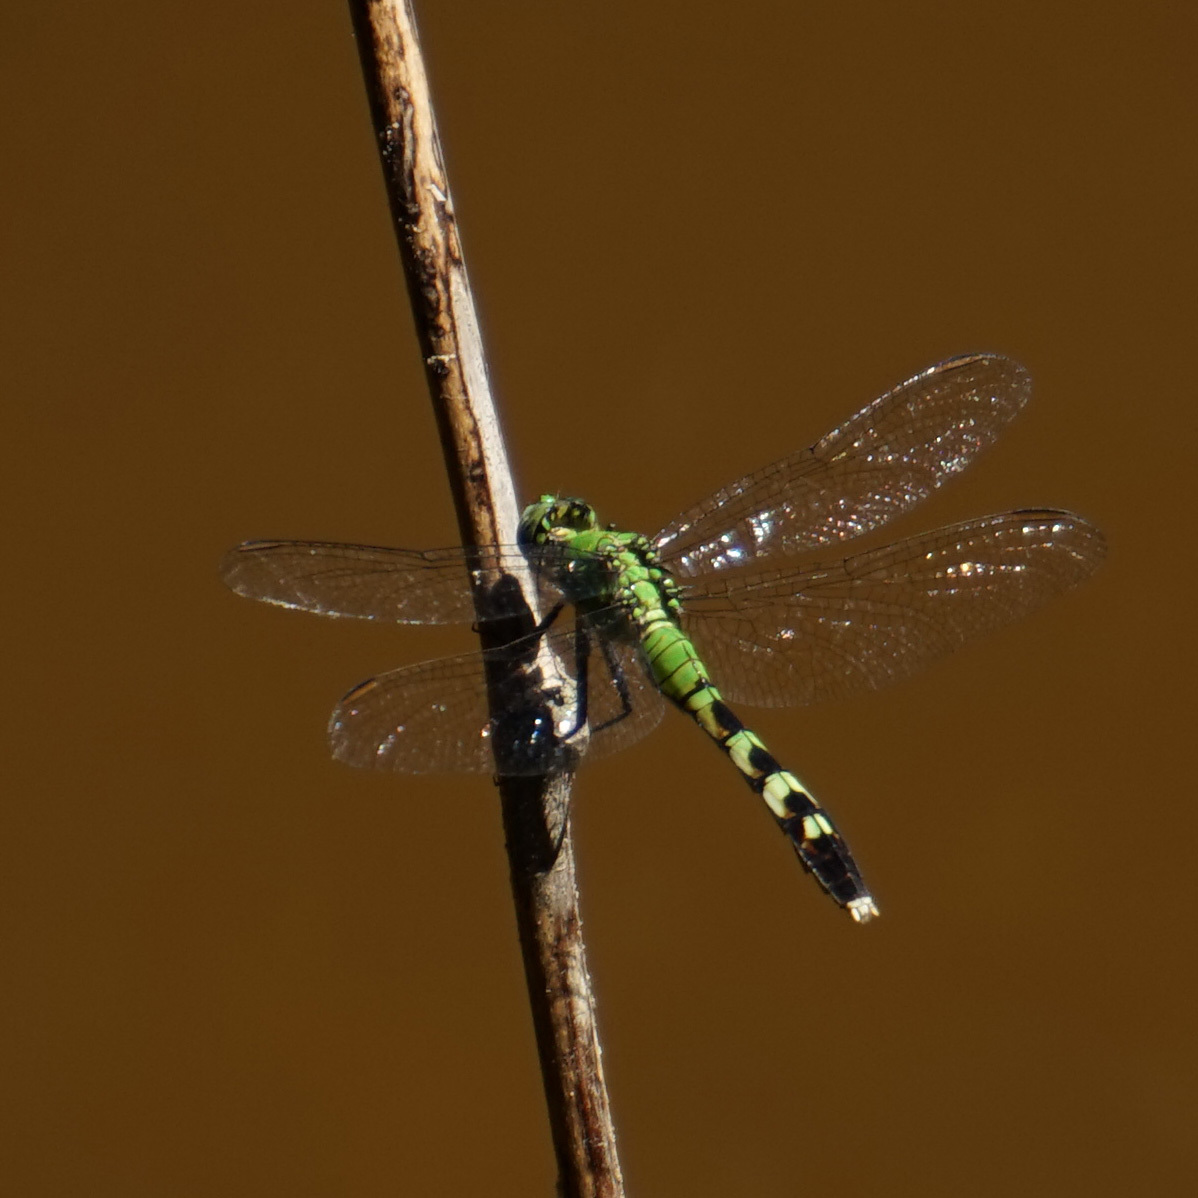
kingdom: Animalia
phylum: Arthropoda
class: Insecta
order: Odonata
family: Libellulidae
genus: Erythemis
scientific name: Erythemis simplicicollis
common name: Eastern pondhawk
